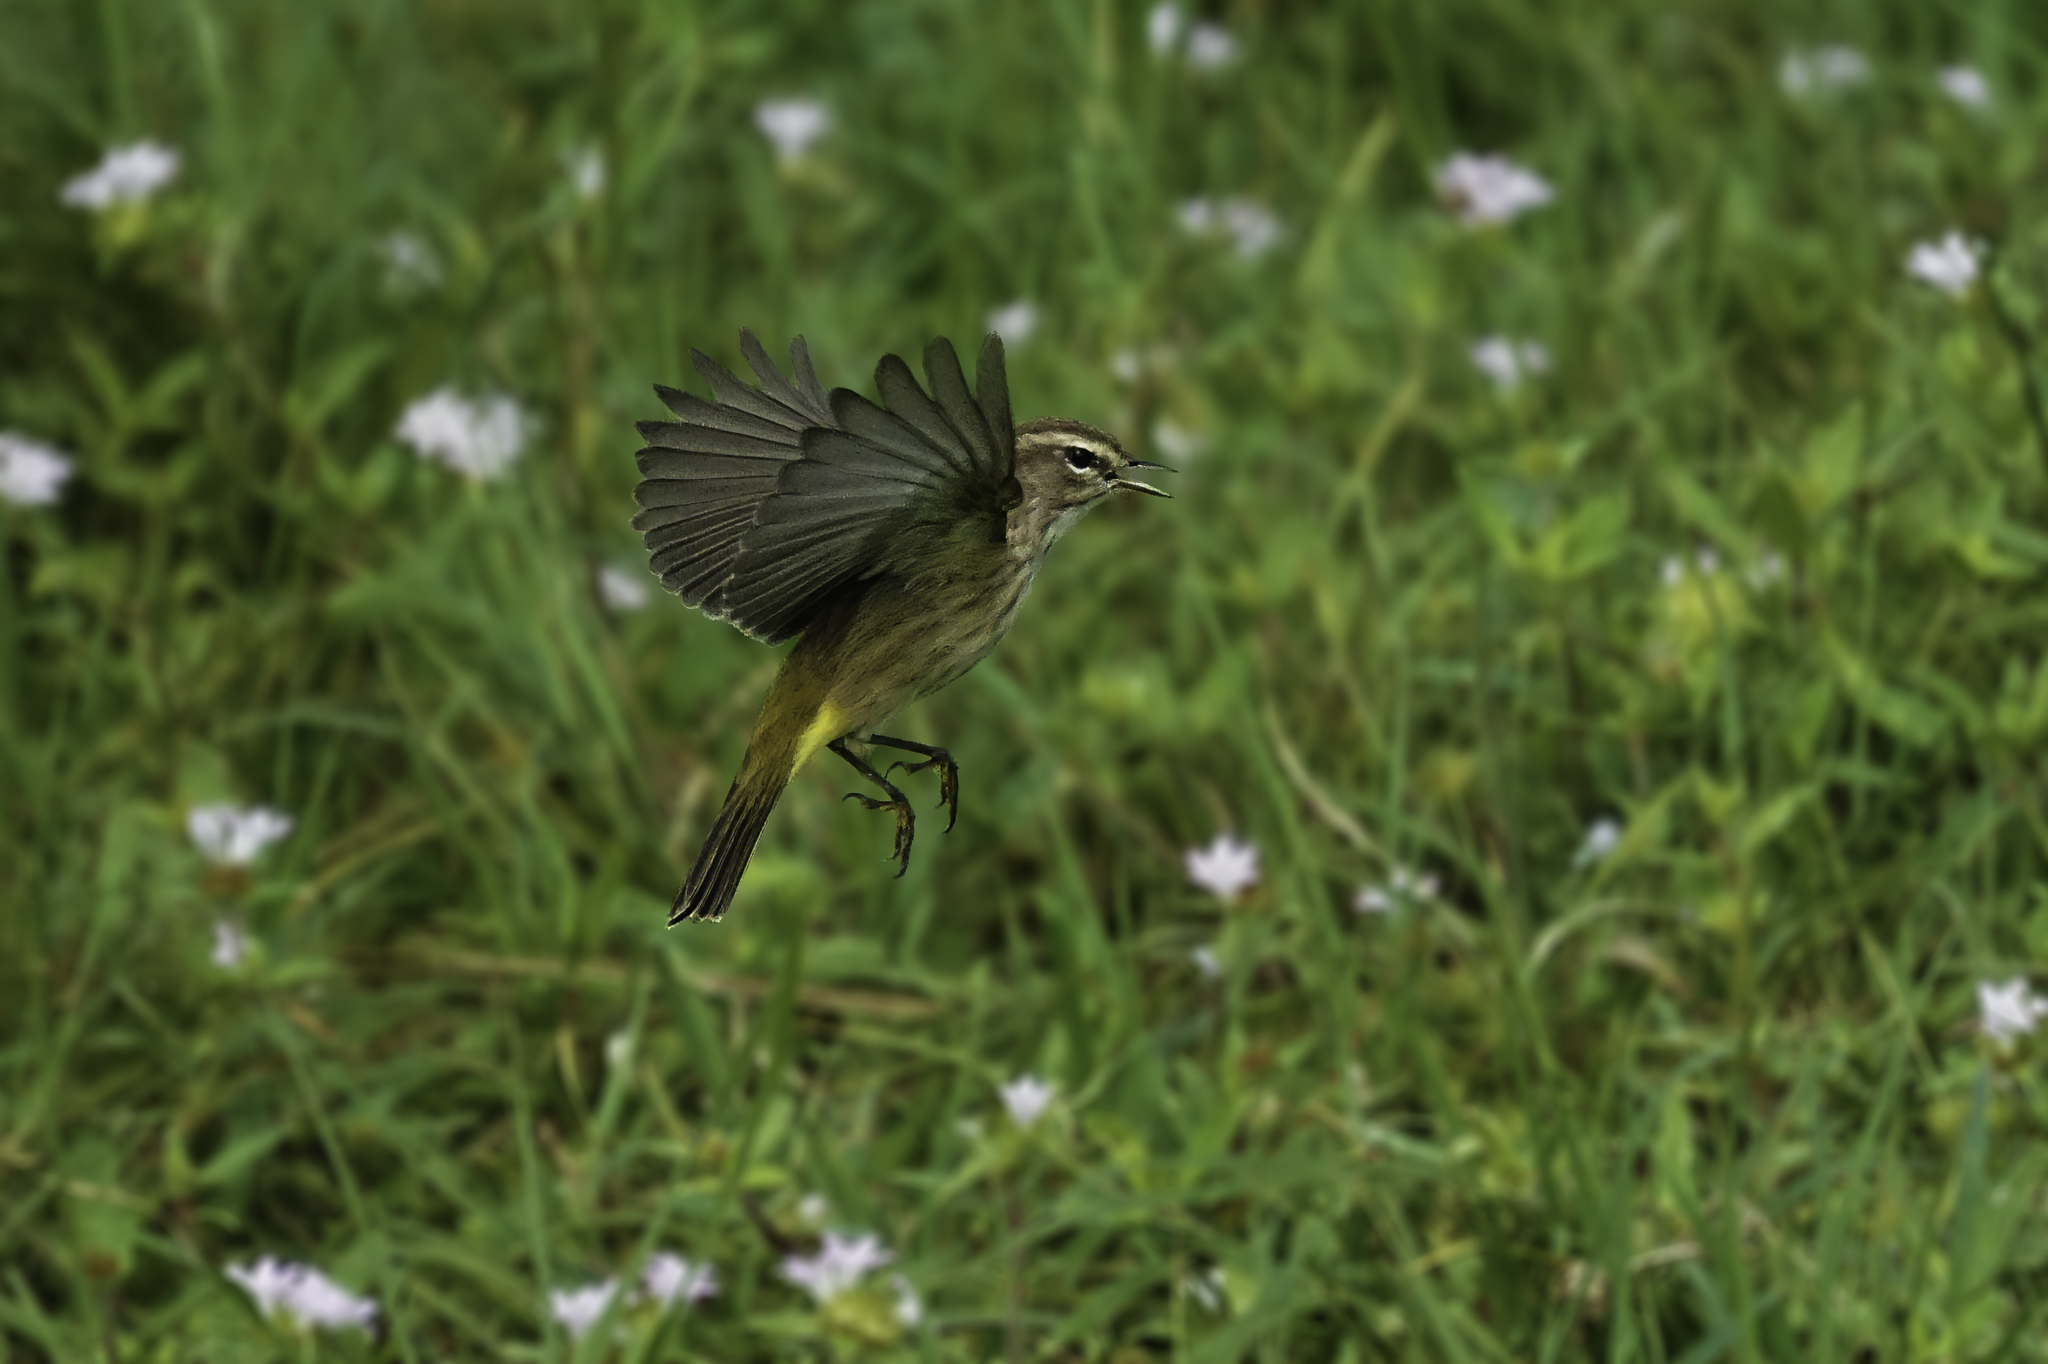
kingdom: Animalia
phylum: Chordata
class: Aves
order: Passeriformes
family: Parulidae
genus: Setophaga
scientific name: Setophaga palmarum
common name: Palm warbler
